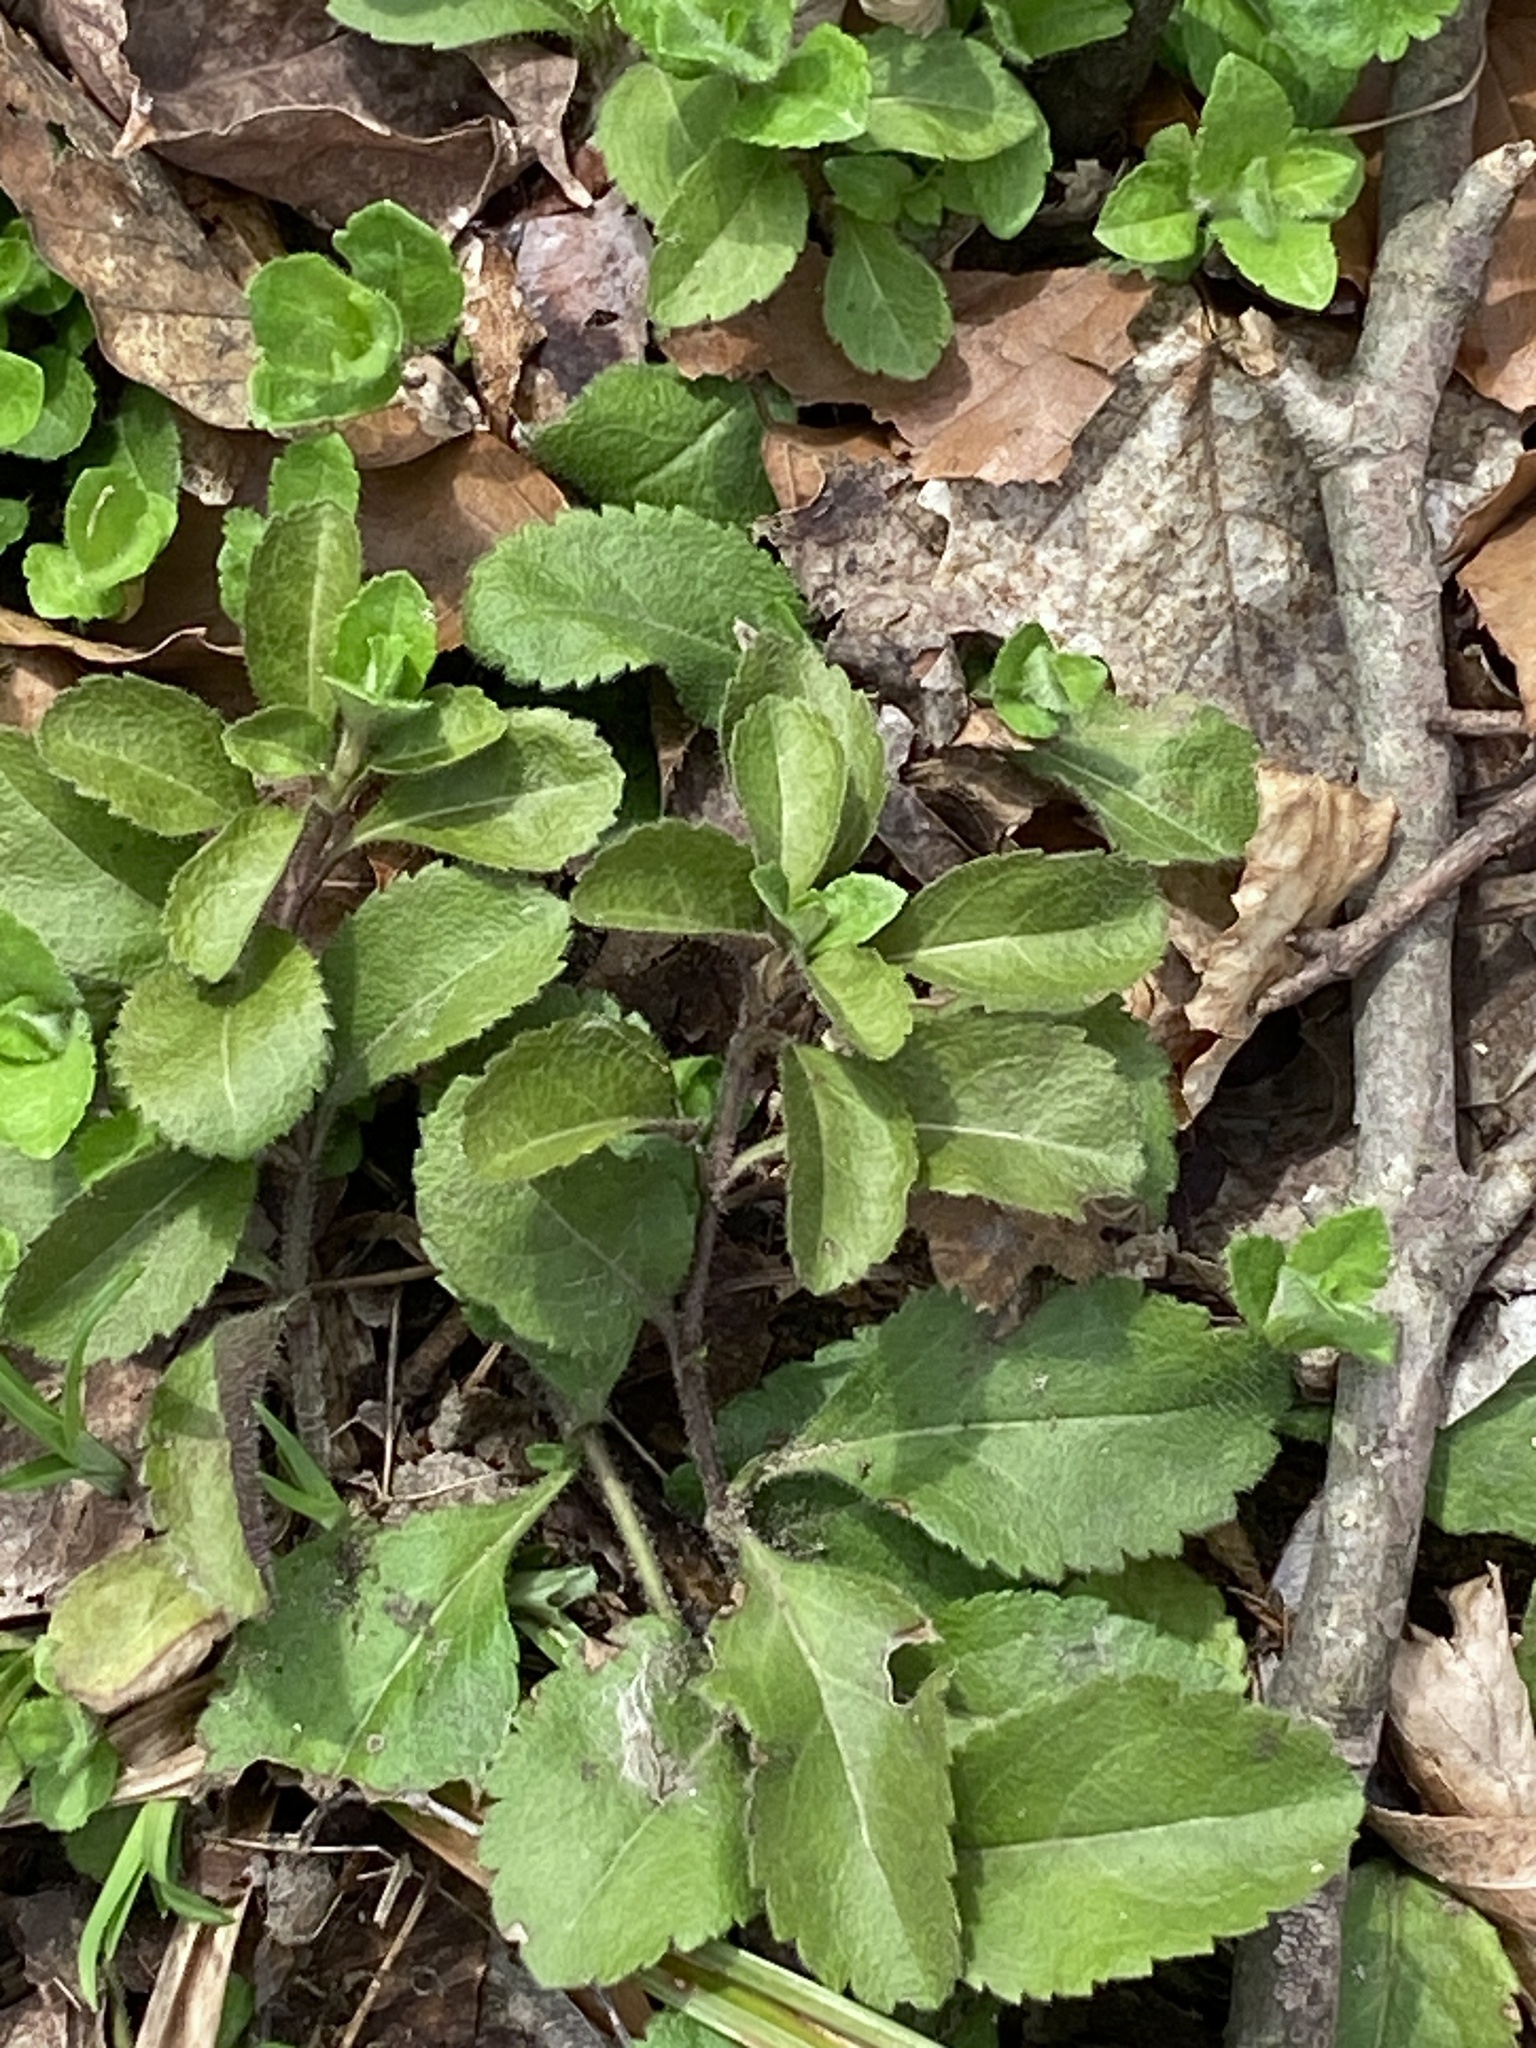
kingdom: Plantae
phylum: Tracheophyta
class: Magnoliopsida
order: Lamiales
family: Plantaginaceae
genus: Veronica
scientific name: Veronica officinalis
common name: Common speedwell
